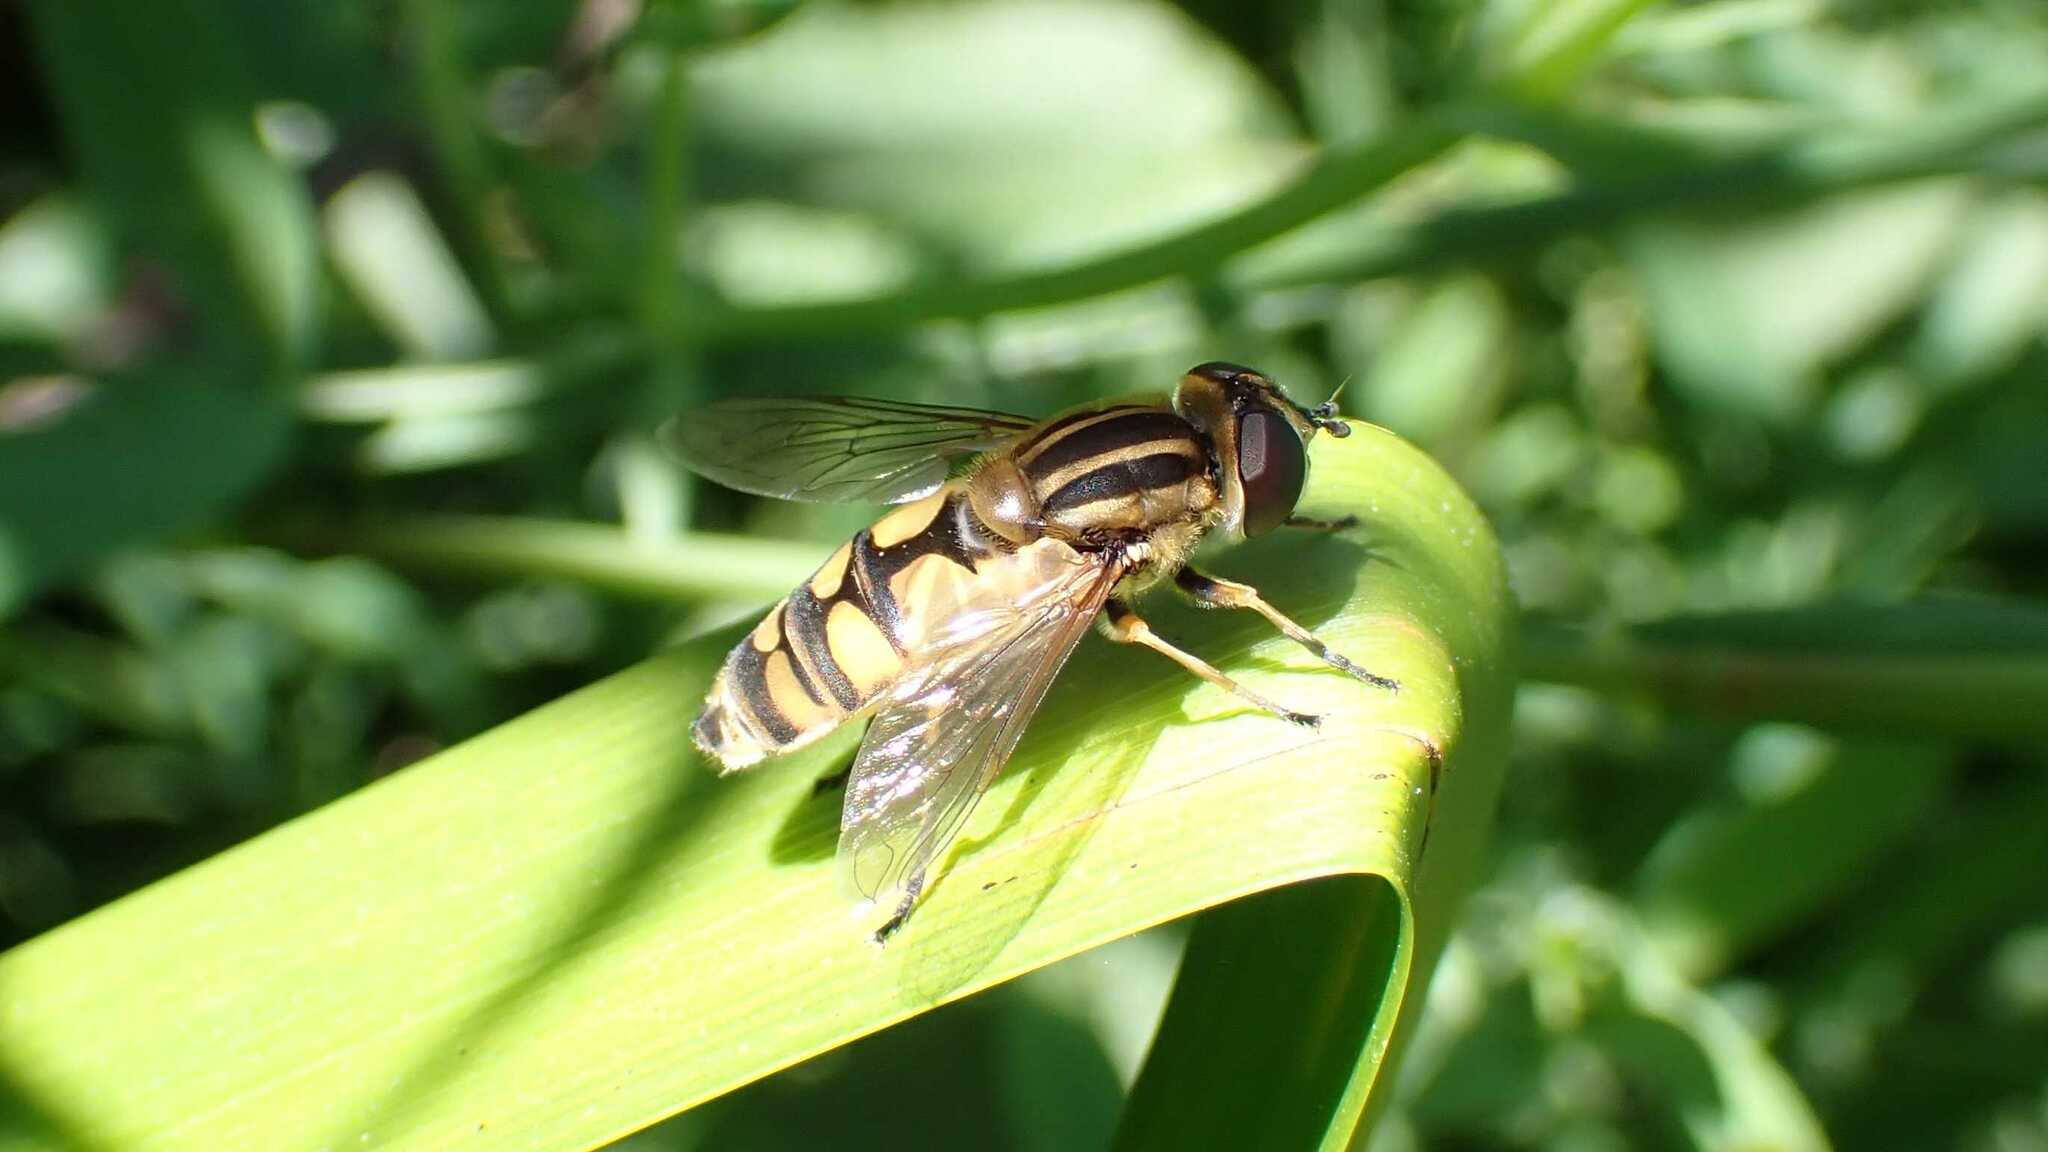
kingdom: Animalia
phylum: Arthropoda
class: Insecta
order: Diptera
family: Syrphidae
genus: Helophilus
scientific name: Helophilus hybridus
